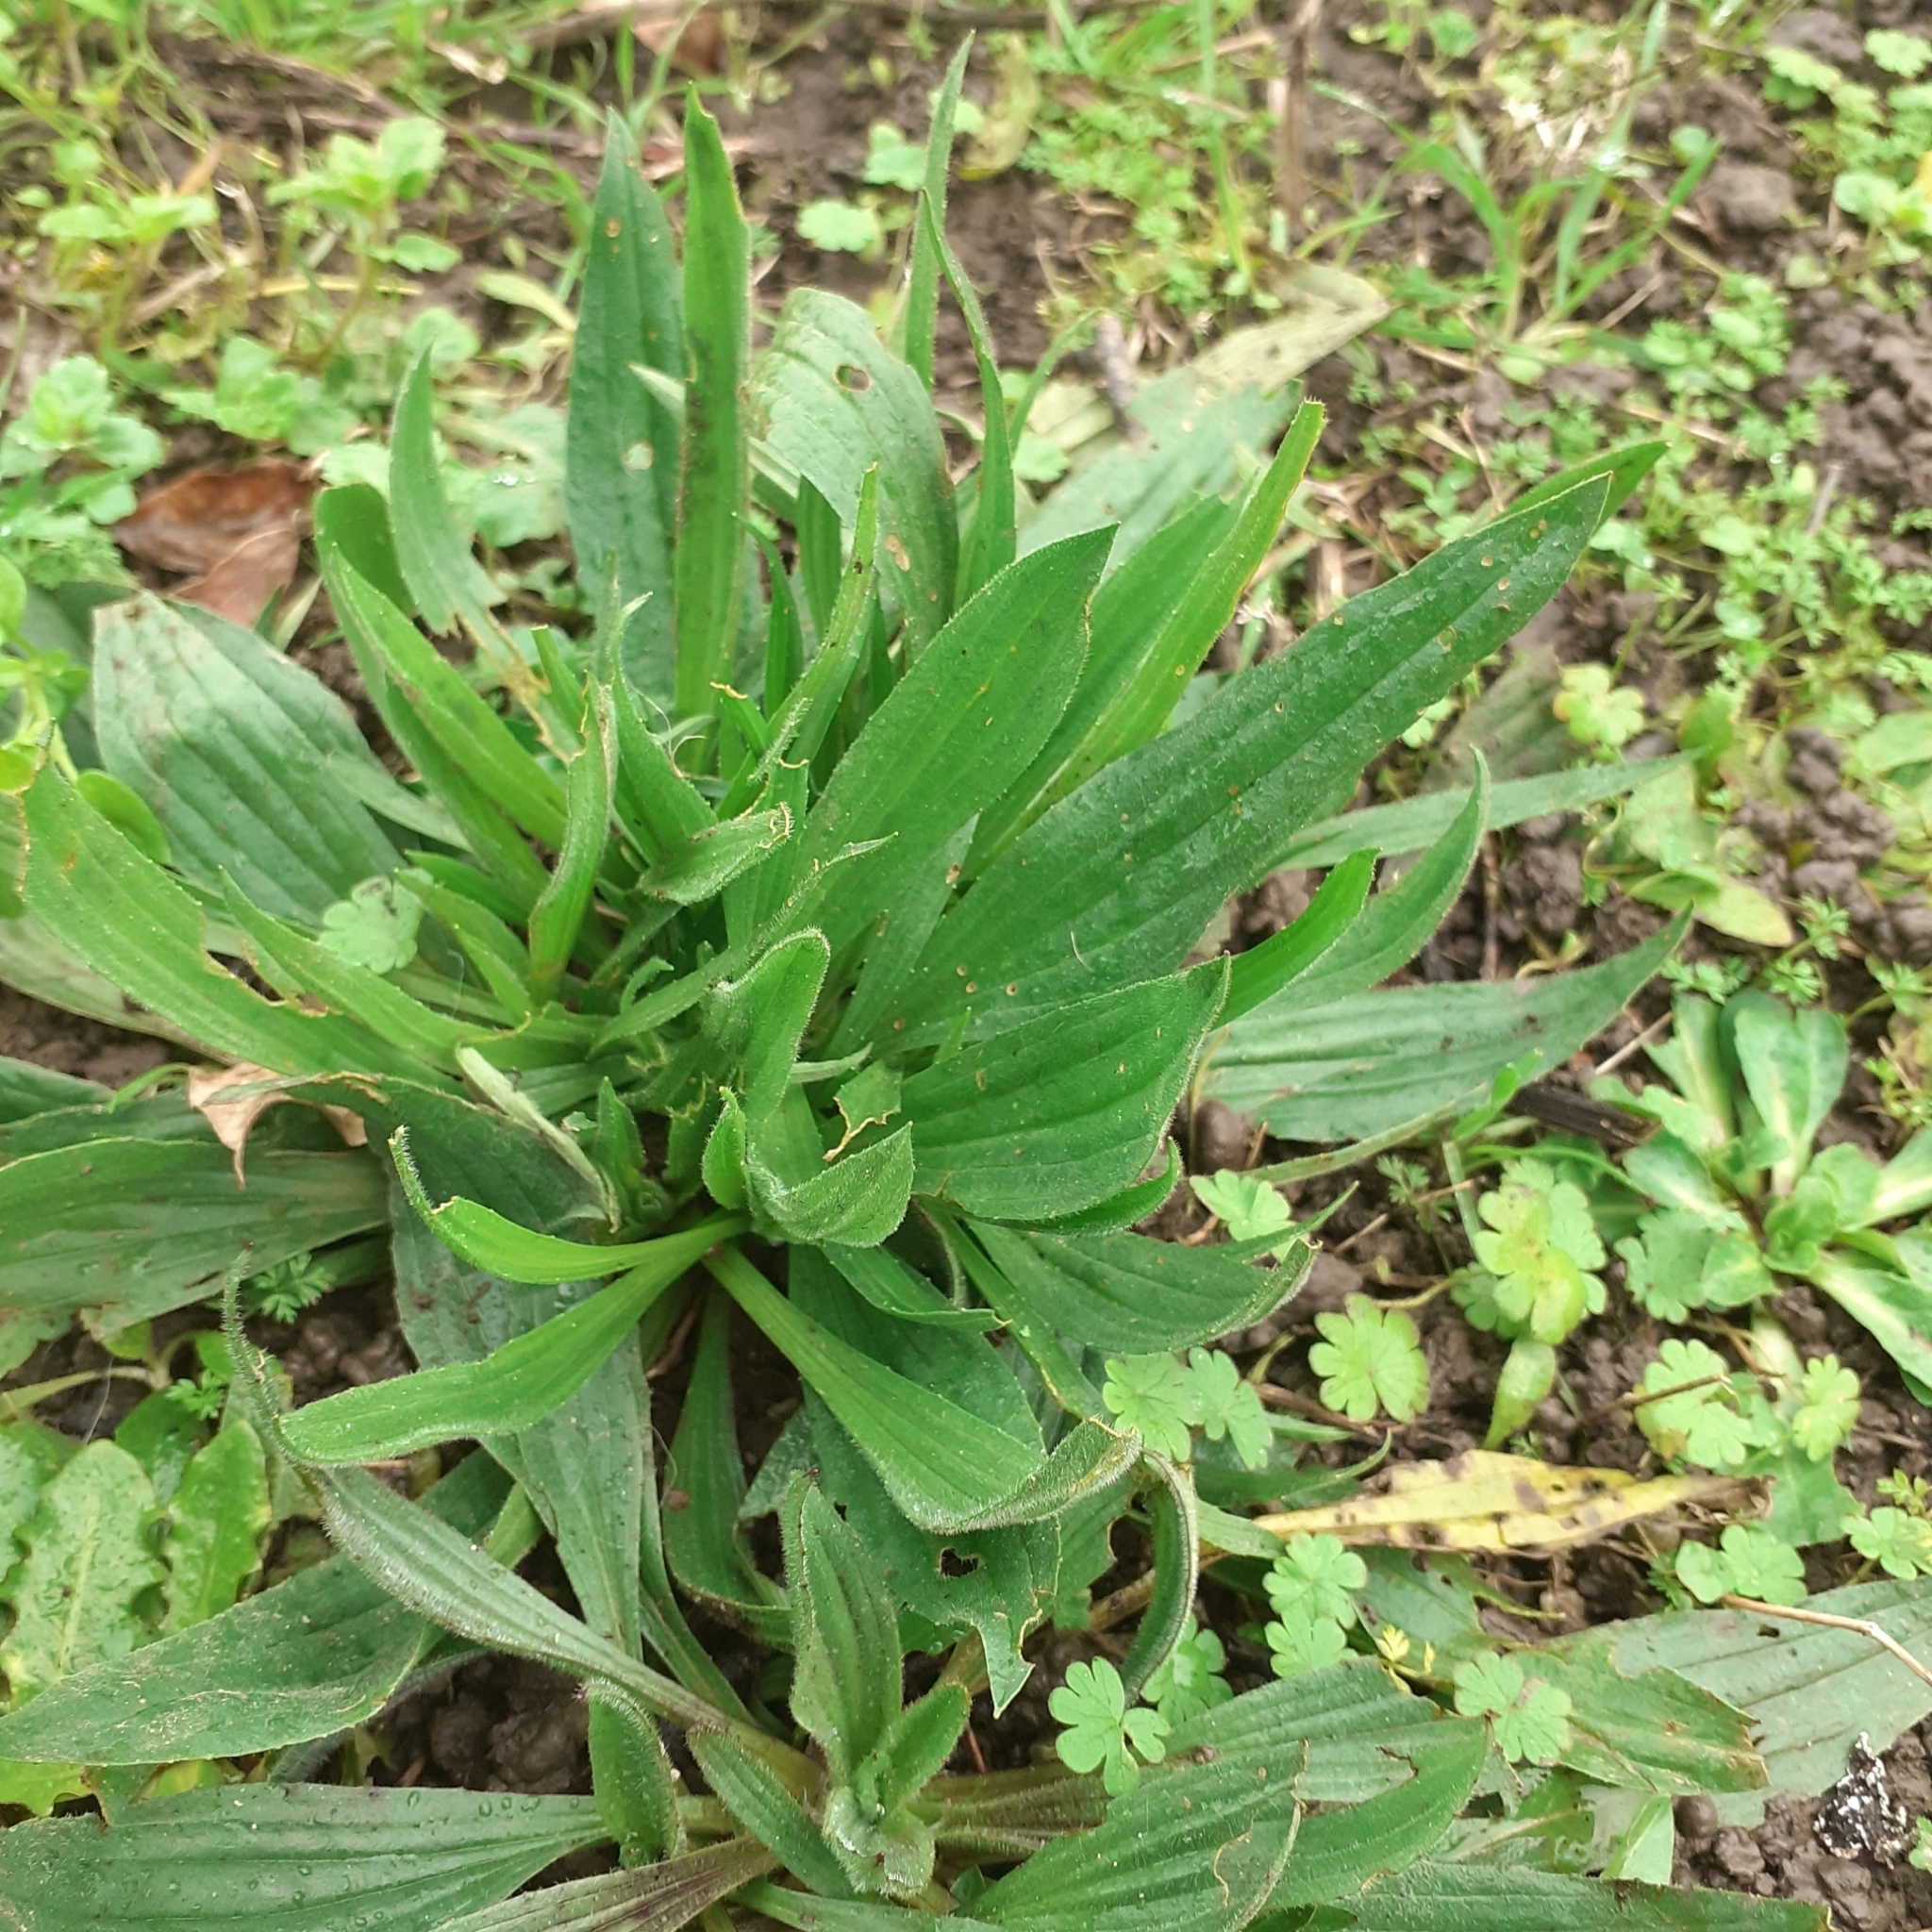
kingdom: Plantae
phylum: Tracheophyta
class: Magnoliopsida
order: Lamiales
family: Plantaginaceae
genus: Plantago
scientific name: Plantago lanceolata
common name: Ribwort plantain
